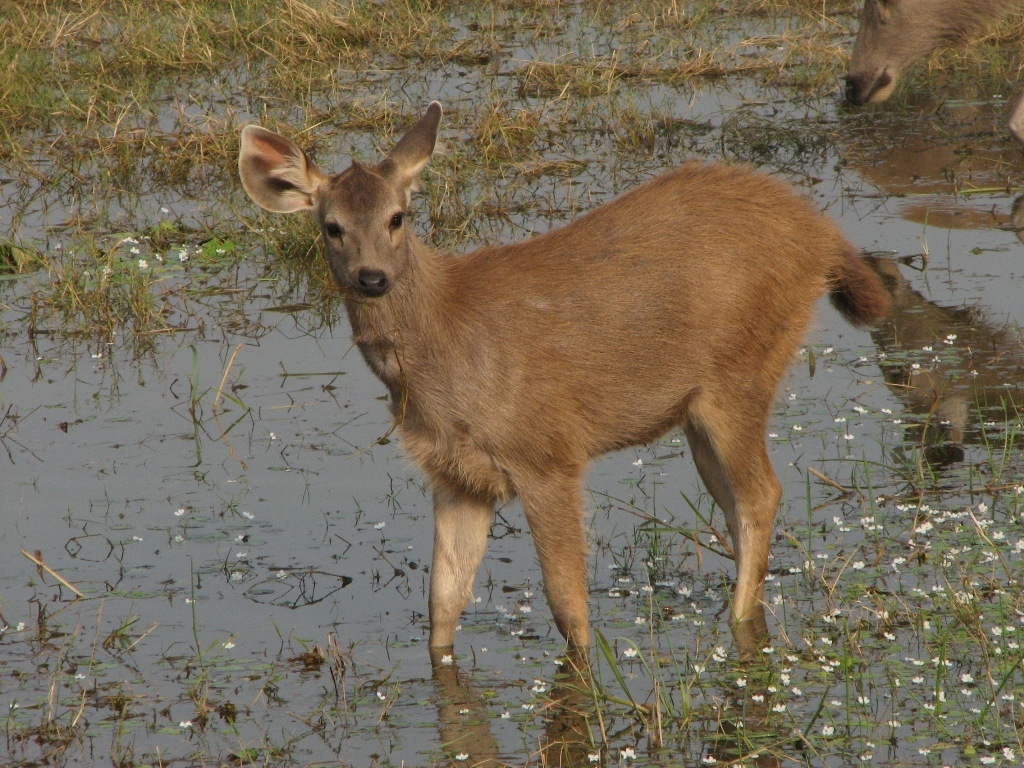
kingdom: Animalia
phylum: Chordata
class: Mammalia
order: Artiodactyla
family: Cervidae
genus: Rusa
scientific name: Rusa unicolor
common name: Sambar
